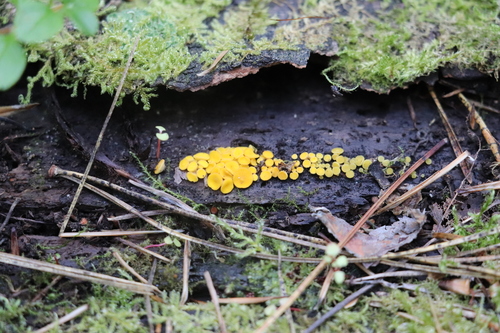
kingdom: Fungi
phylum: Ascomycota
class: Leotiomycetes
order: Helotiales
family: Pezizellaceae
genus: Calycina
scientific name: Calycina citrina
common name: Yellow fairy cups
